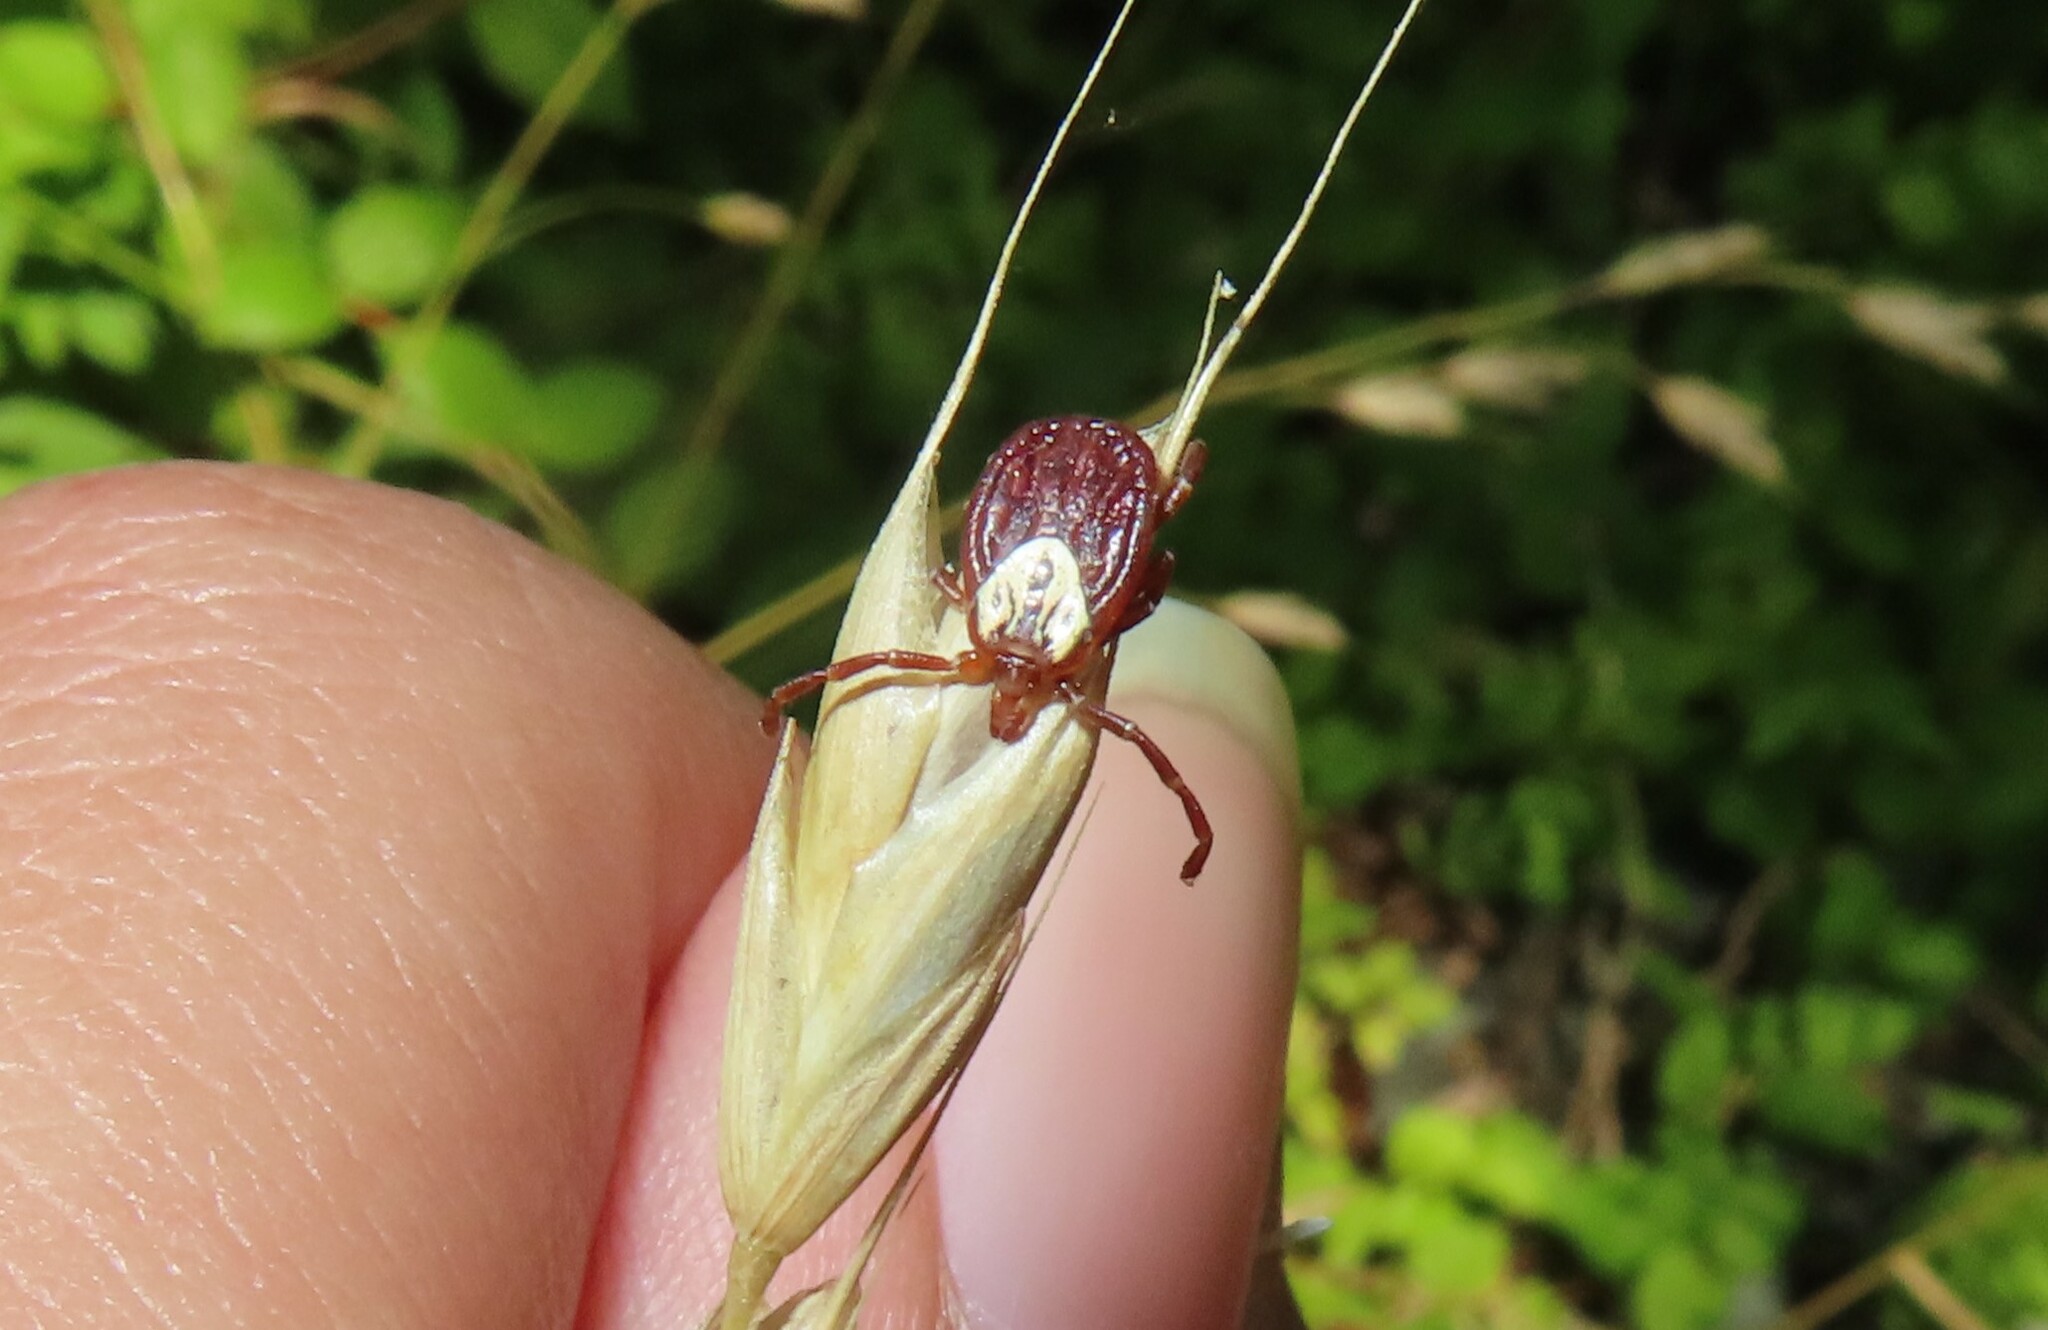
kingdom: Animalia
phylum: Arthropoda
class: Arachnida
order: Ixodida
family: Ixodidae
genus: Amblyomma
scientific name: Amblyomma maculatum
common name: Gulf coast tick
